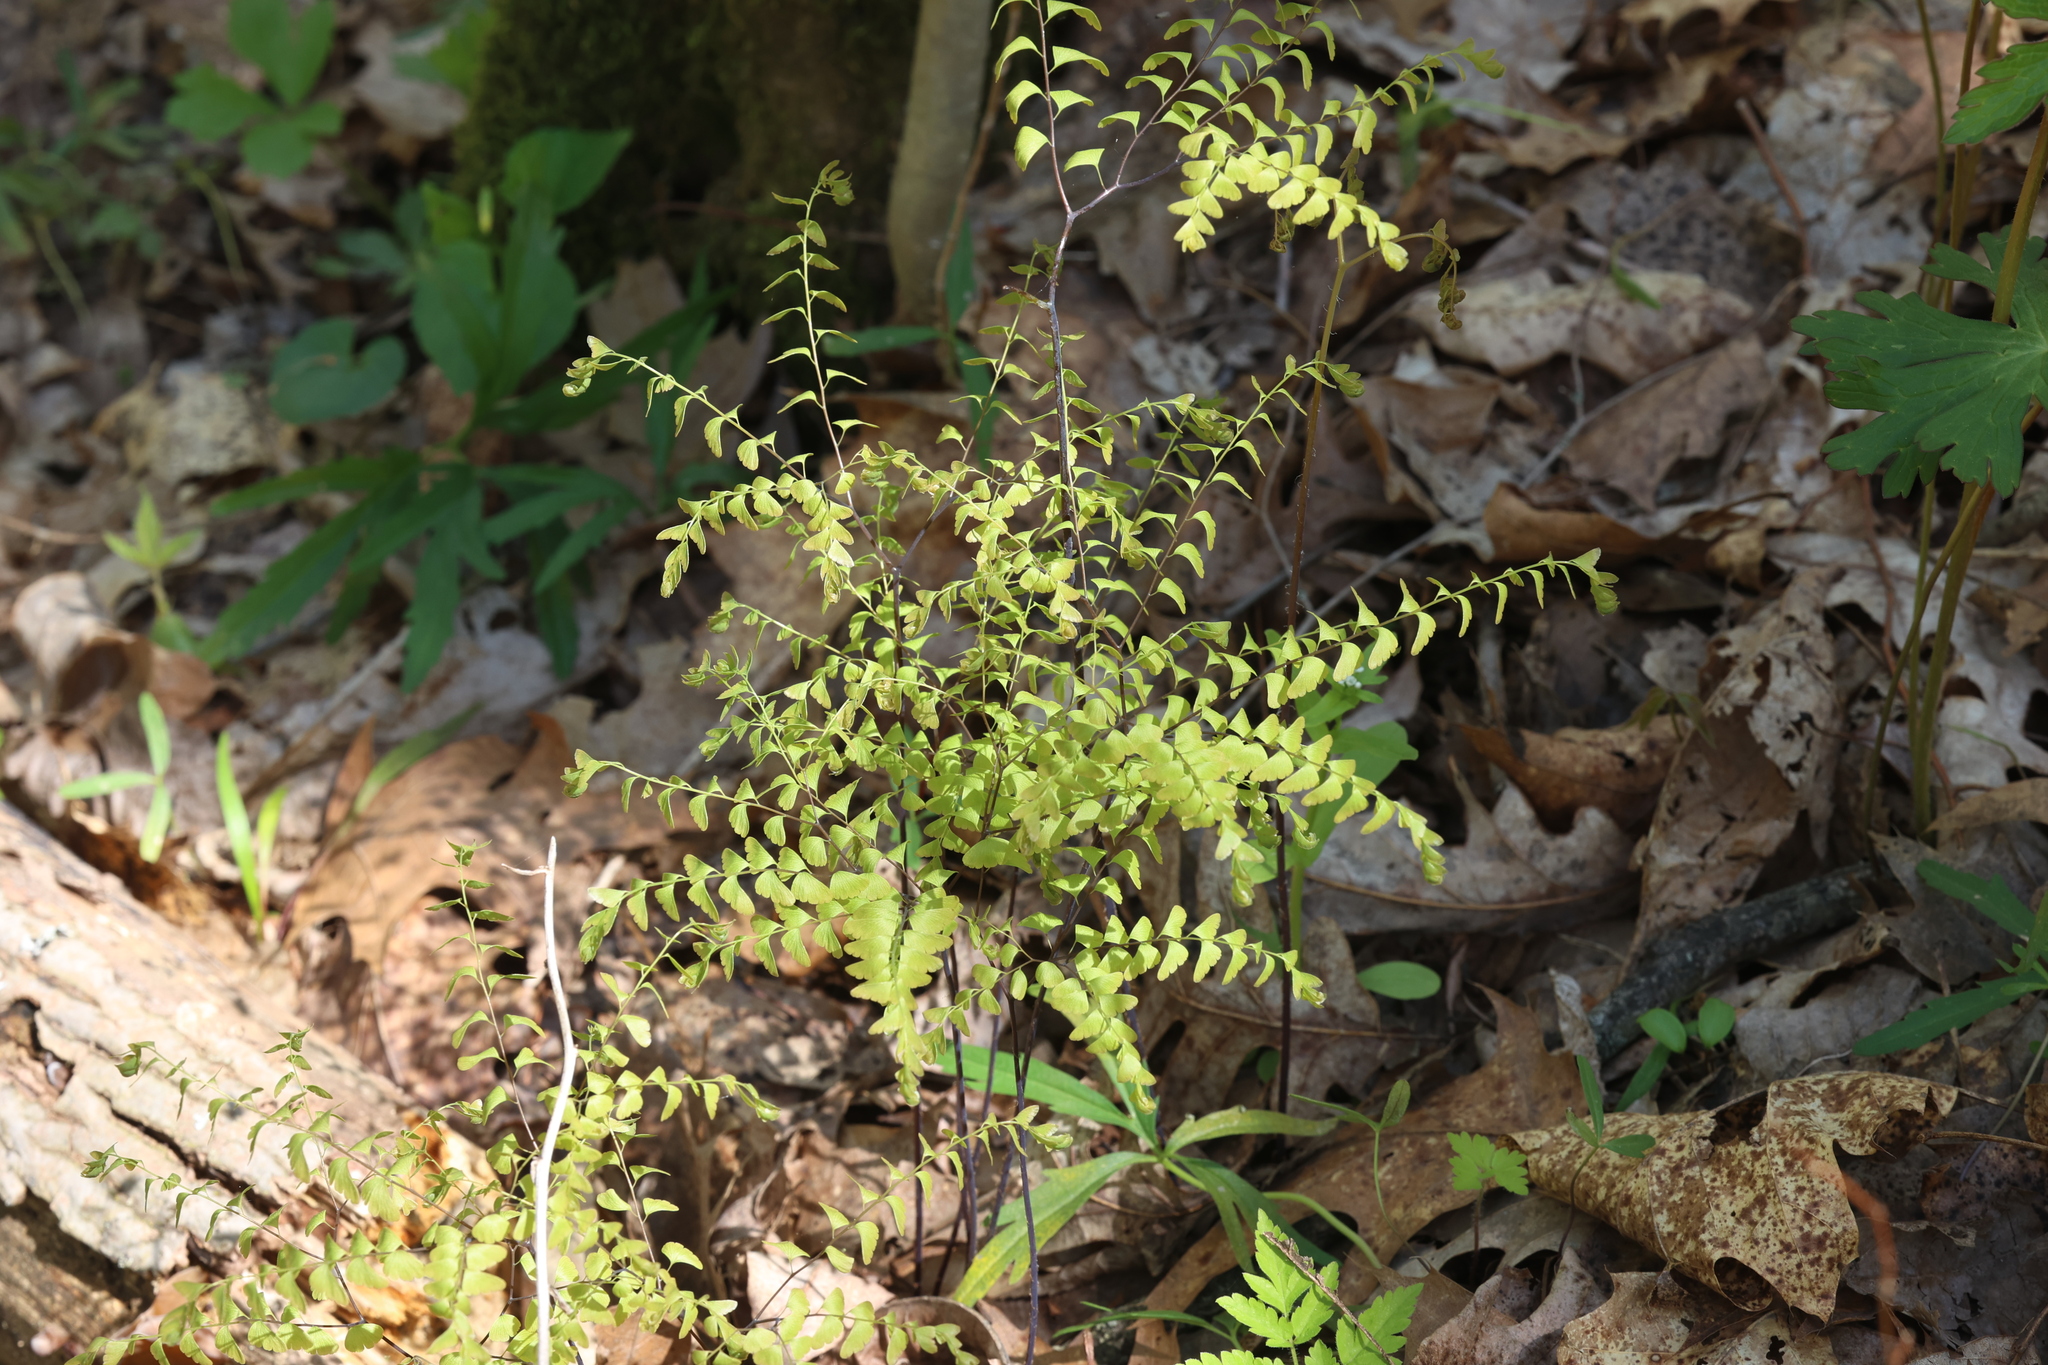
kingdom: Plantae
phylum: Tracheophyta
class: Polypodiopsida
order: Polypodiales
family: Pteridaceae
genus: Adiantum
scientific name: Adiantum pedatum
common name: Five-finger fern
